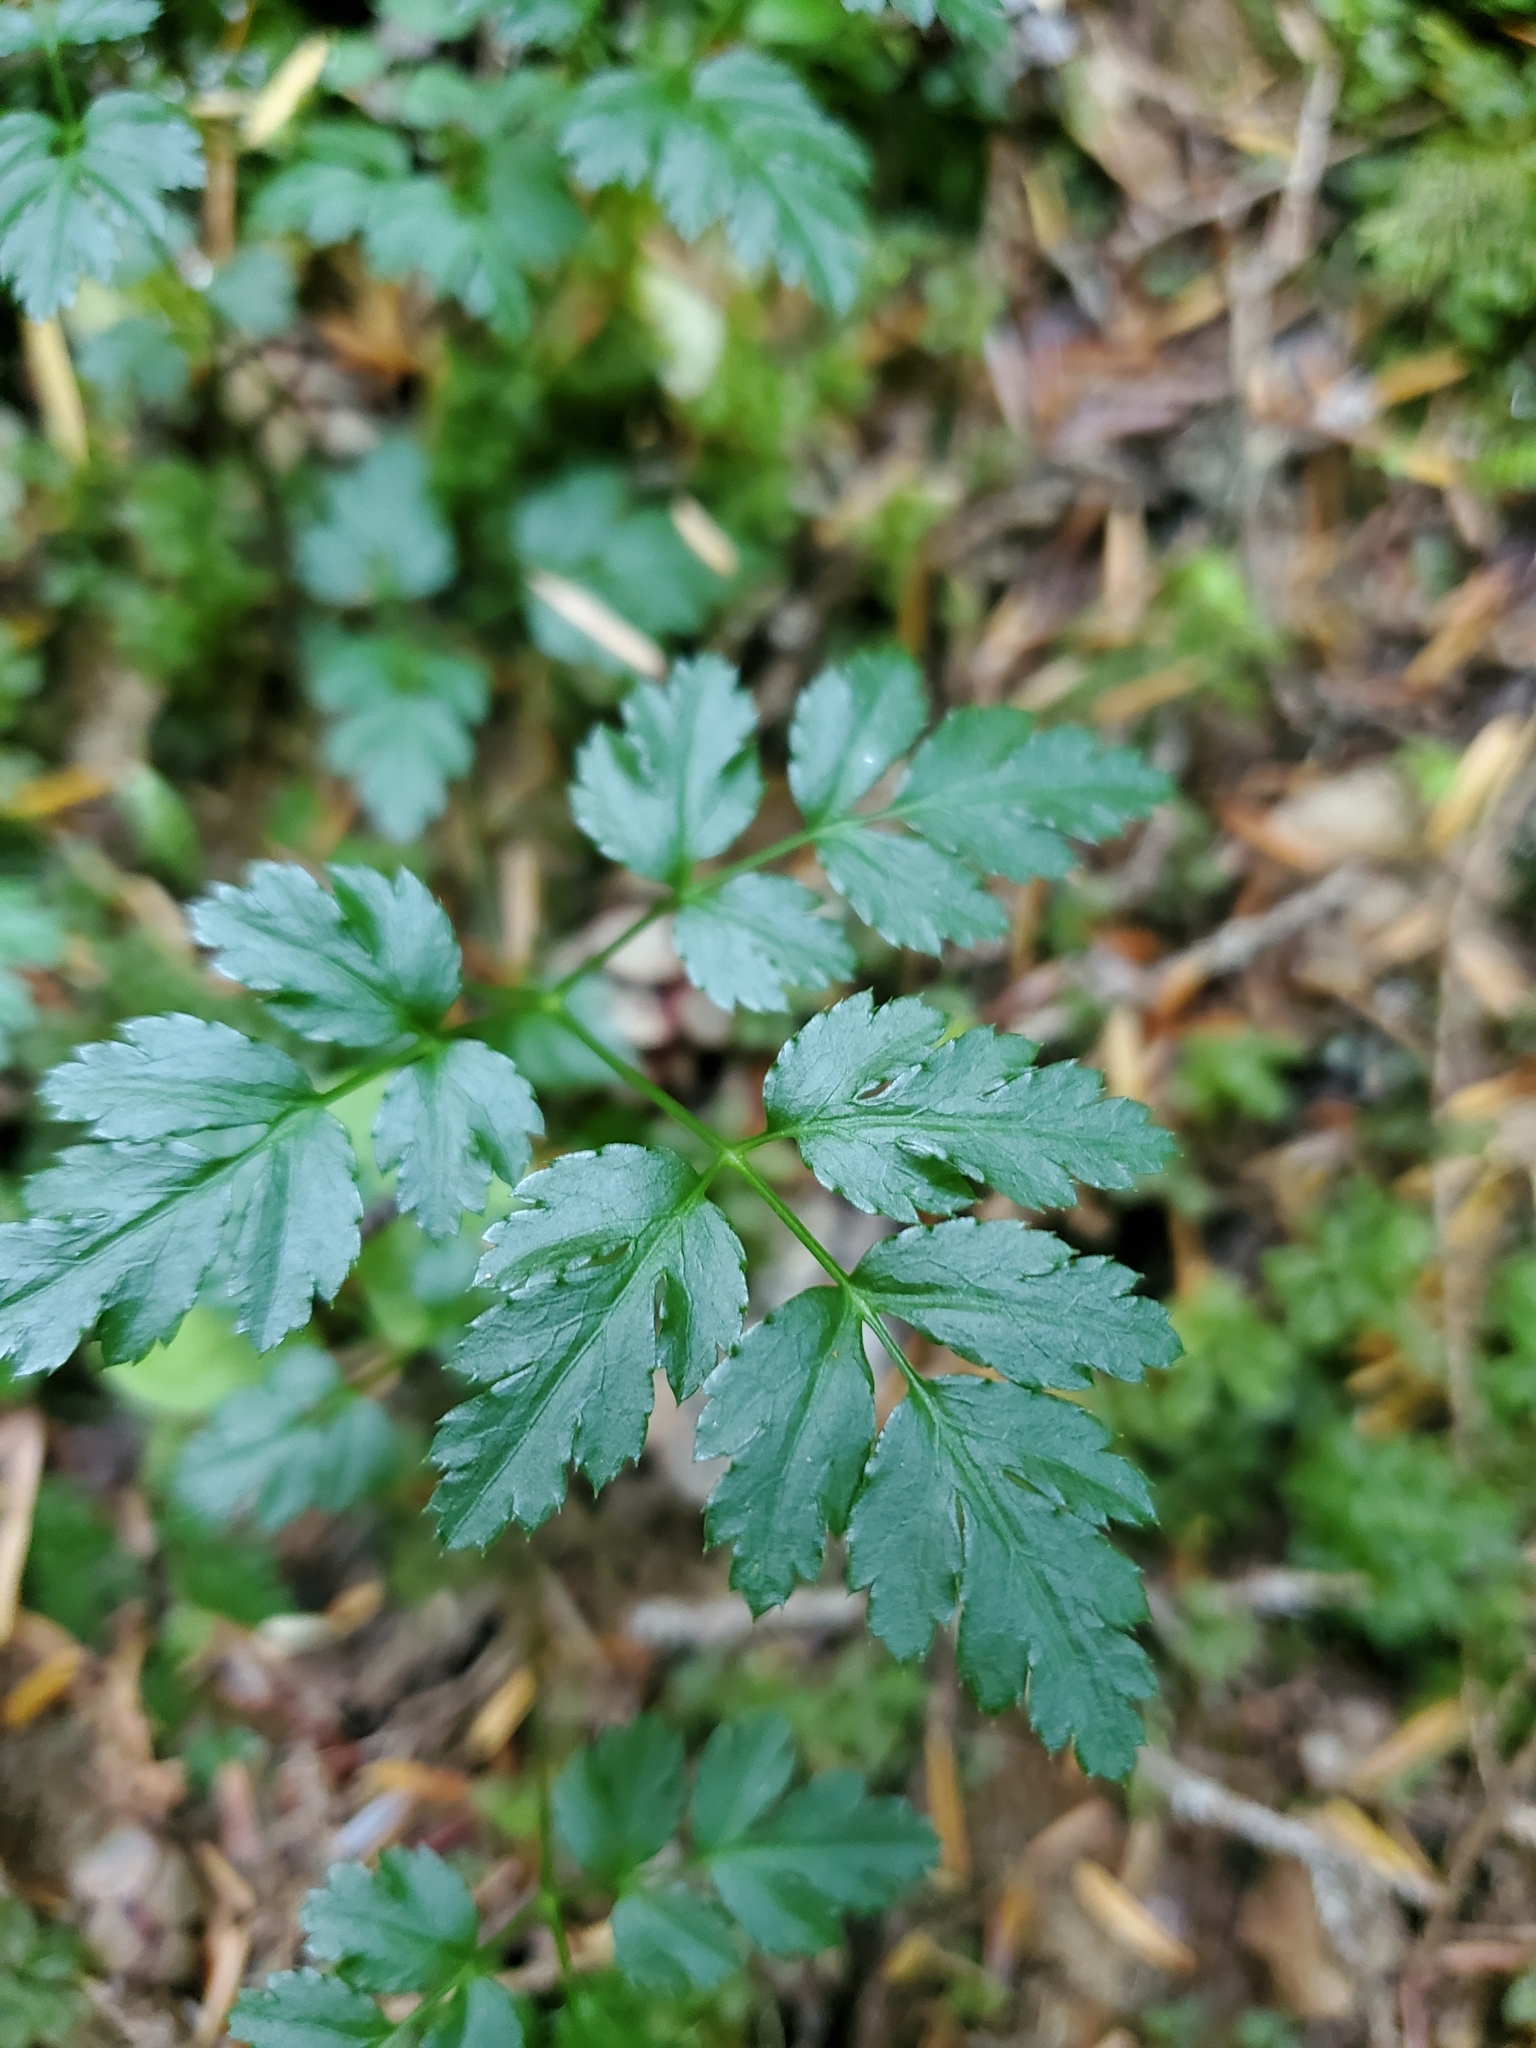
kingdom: Plantae
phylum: Tracheophyta
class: Magnoliopsida
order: Ranunculales
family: Ranunculaceae
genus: Coptis
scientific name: Coptis aspleniifolia
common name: Fern-leaved goldthread
